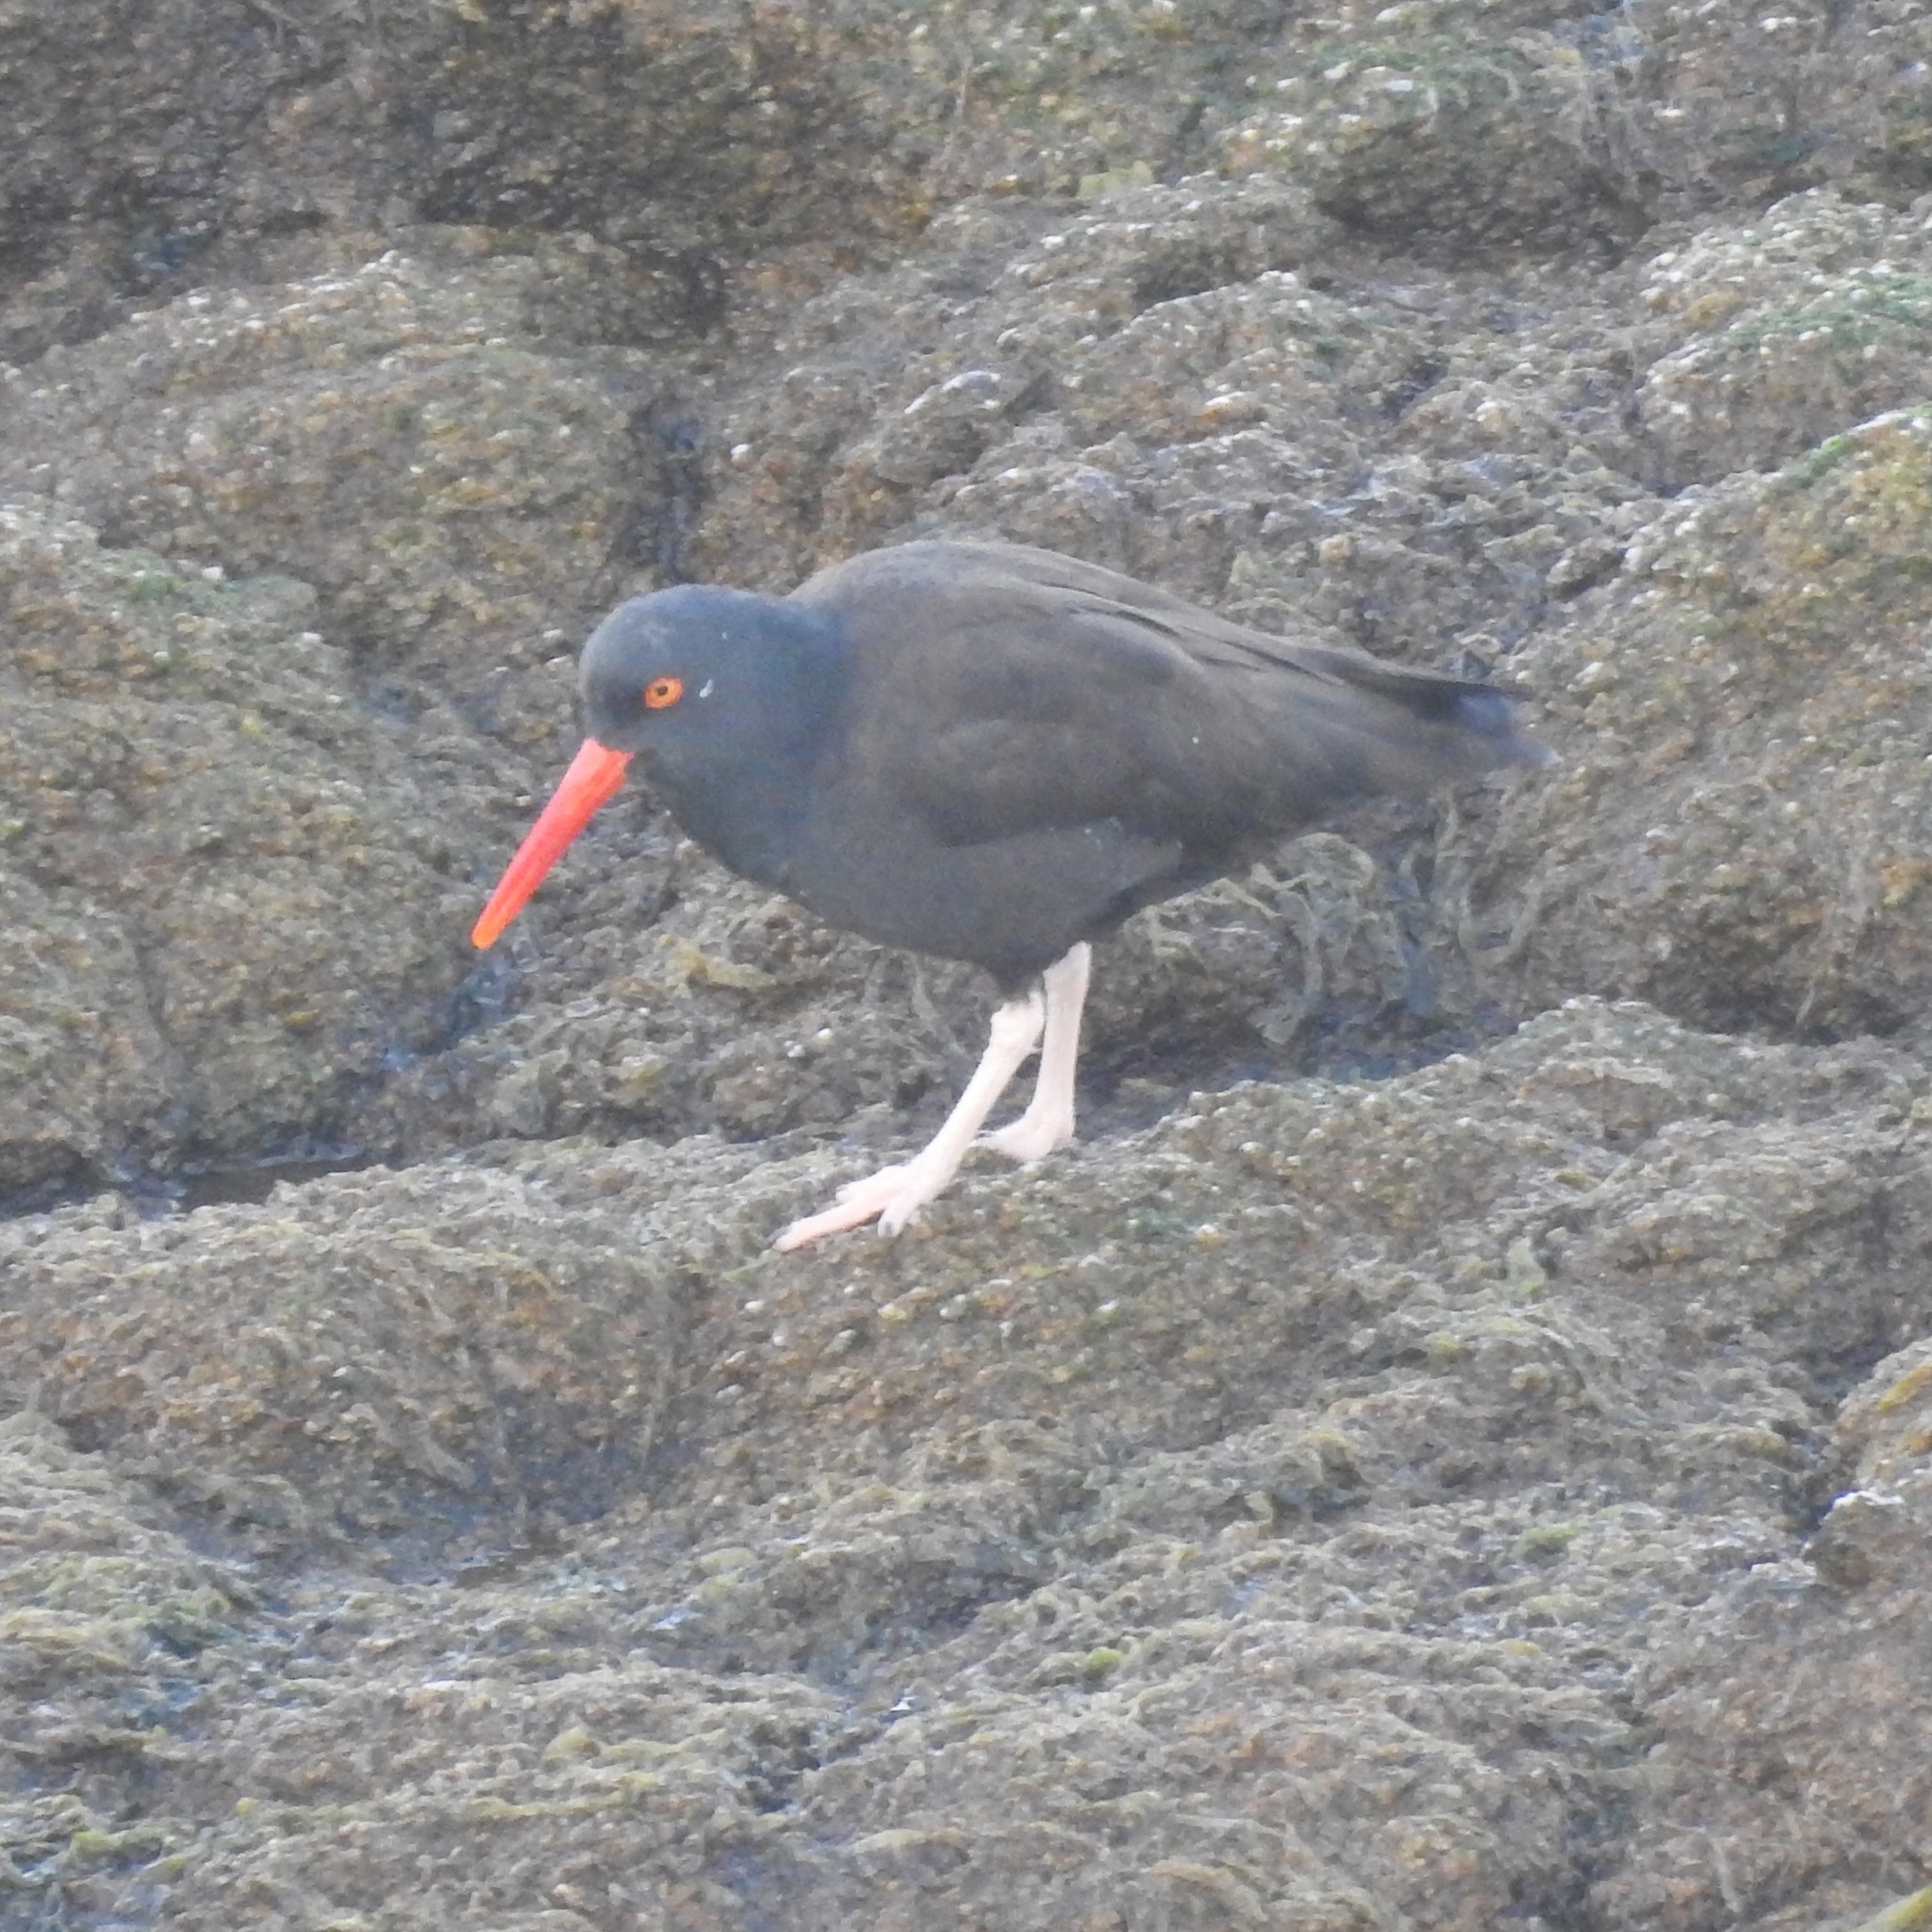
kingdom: Animalia
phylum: Chordata
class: Aves
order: Charadriiformes
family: Haematopodidae
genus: Haematopus
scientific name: Haematopus bachmani
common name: Black oystercatcher
